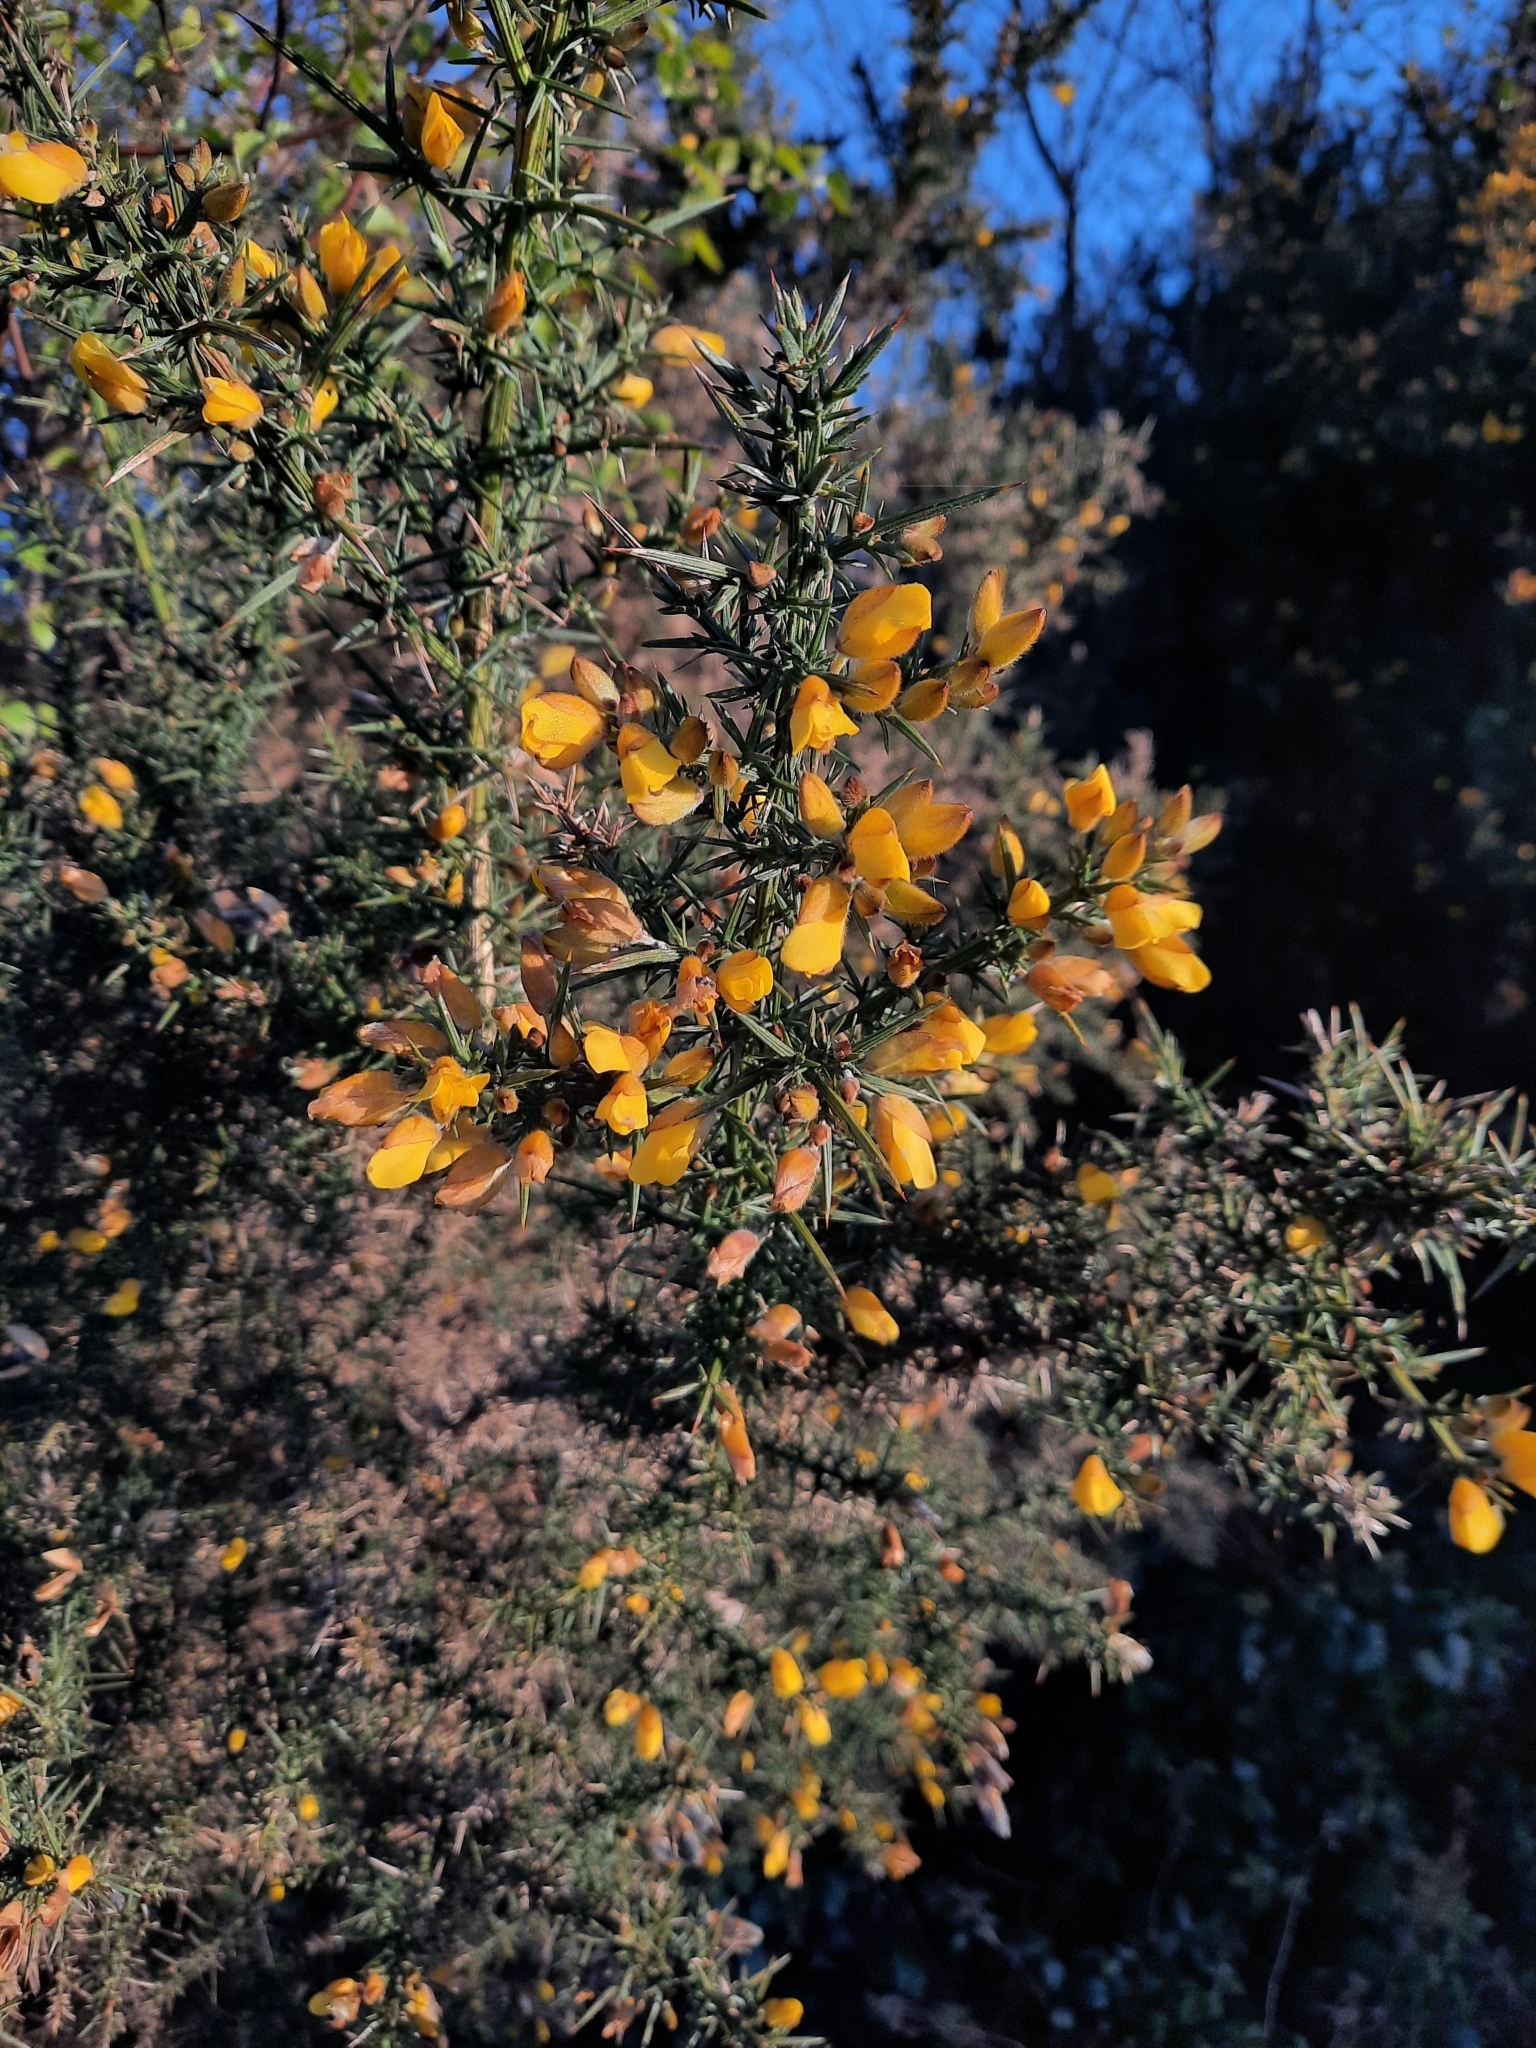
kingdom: Plantae
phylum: Tracheophyta
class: Magnoliopsida
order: Fabales
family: Fabaceae
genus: Ulex
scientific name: Ulex europaeus
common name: Common gorse
